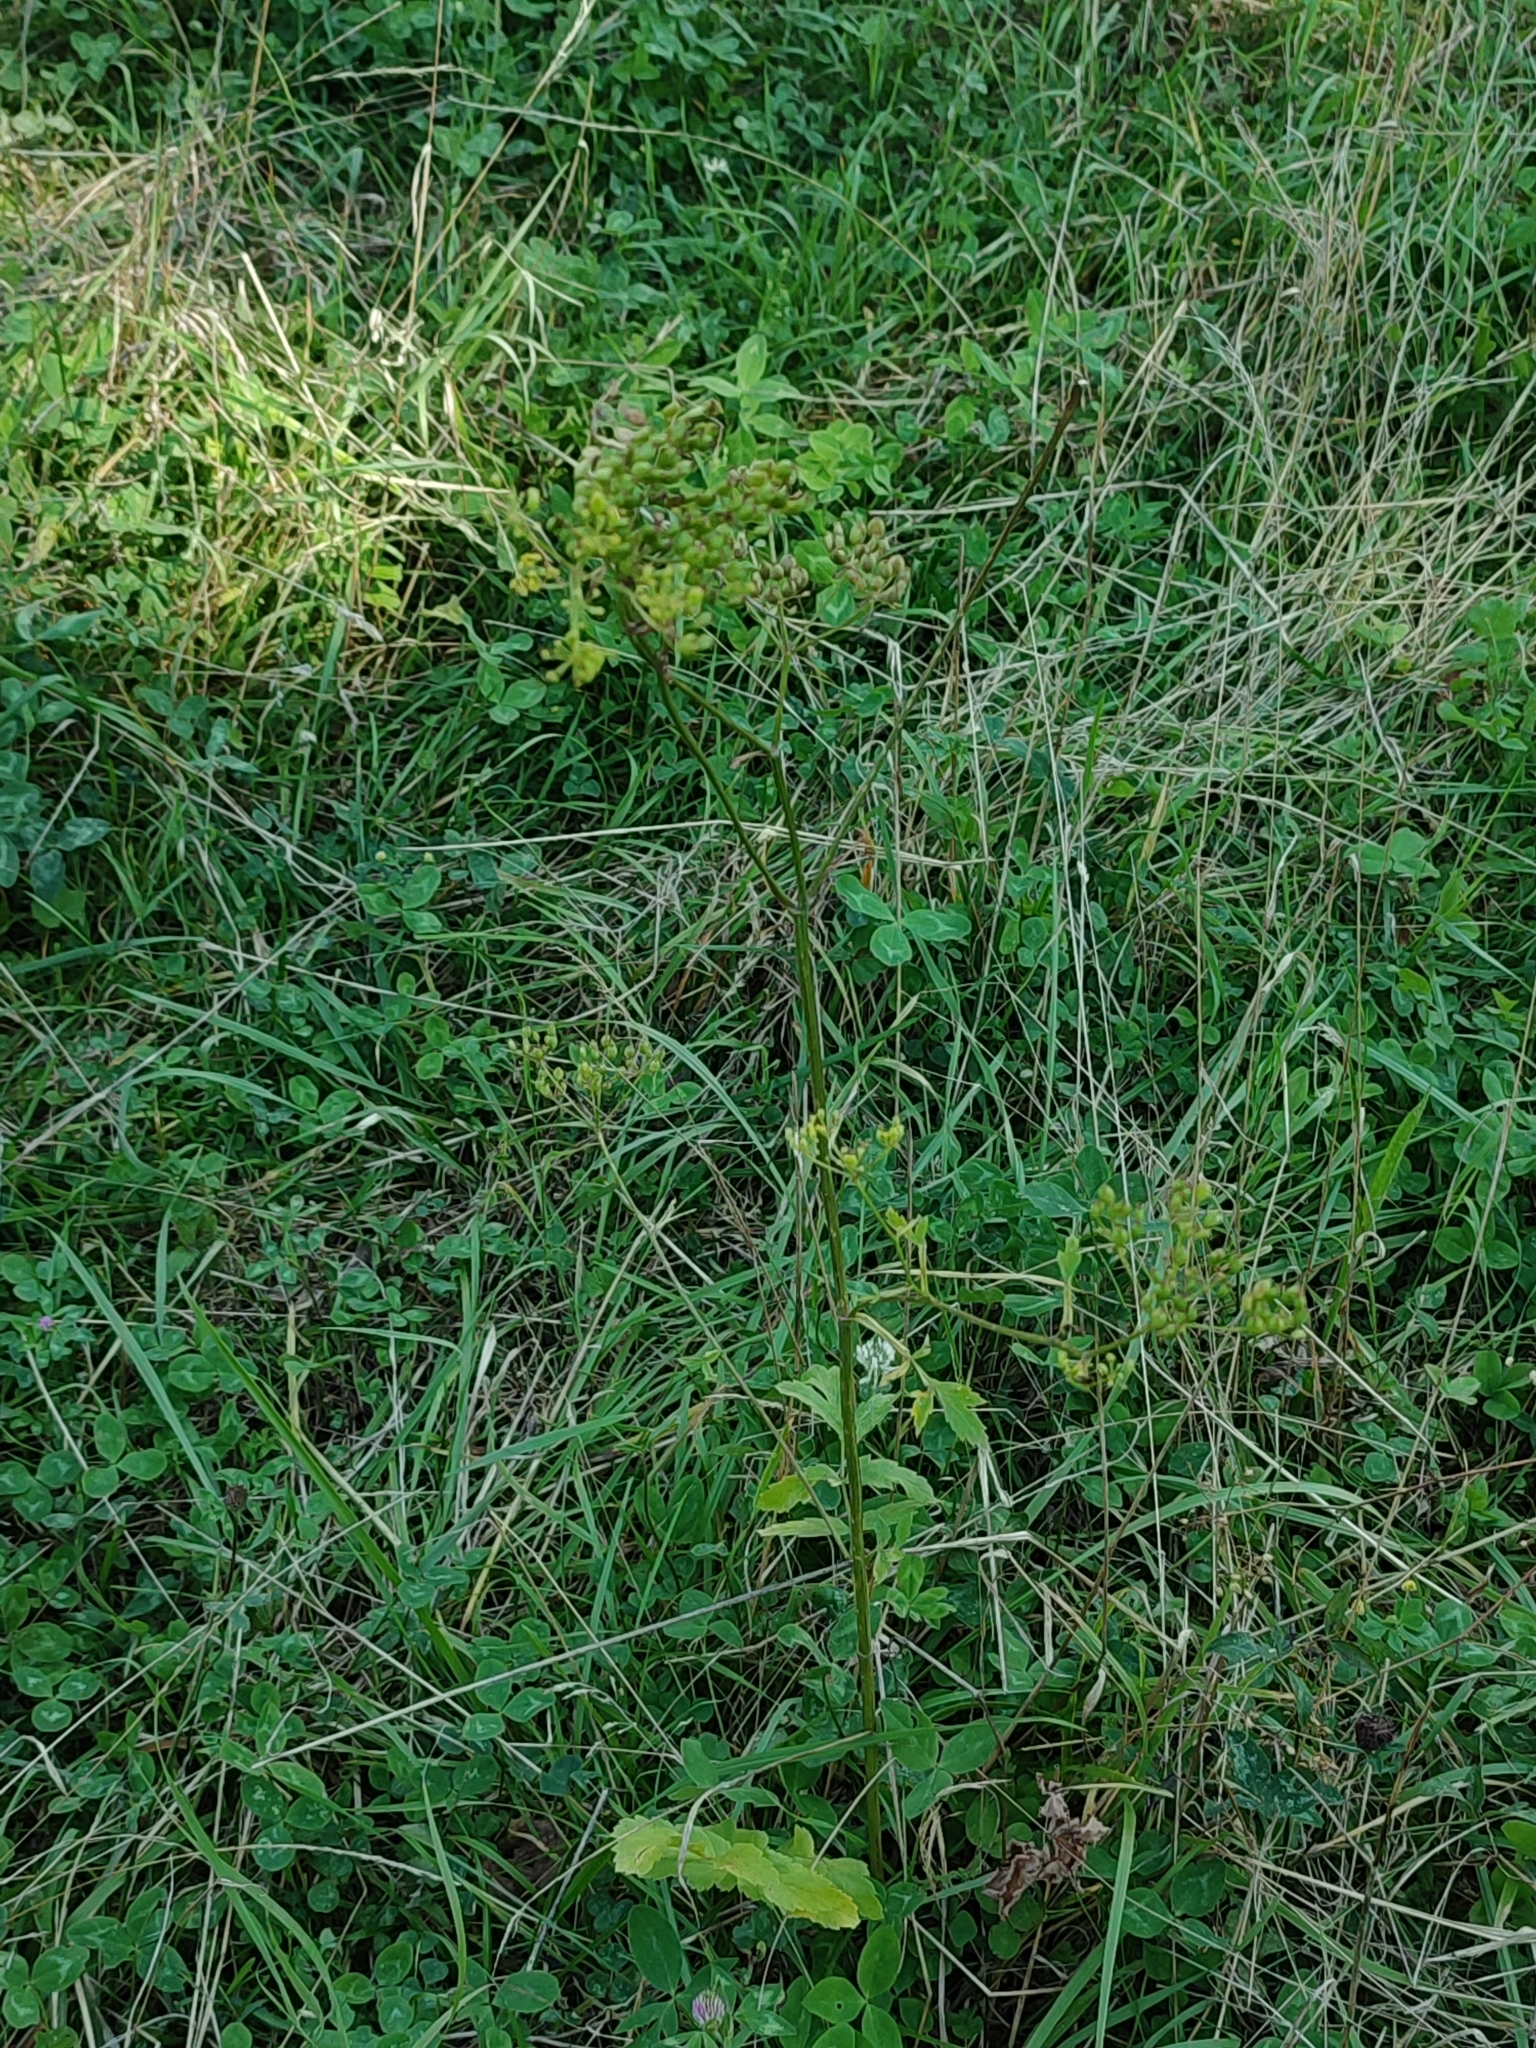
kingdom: Plantae
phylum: Tracheophyta
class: Magnoliopsida
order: Apiales
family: Apiaceae
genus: Pastinaca
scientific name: Pastinaca sativa
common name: Wild parsnip
